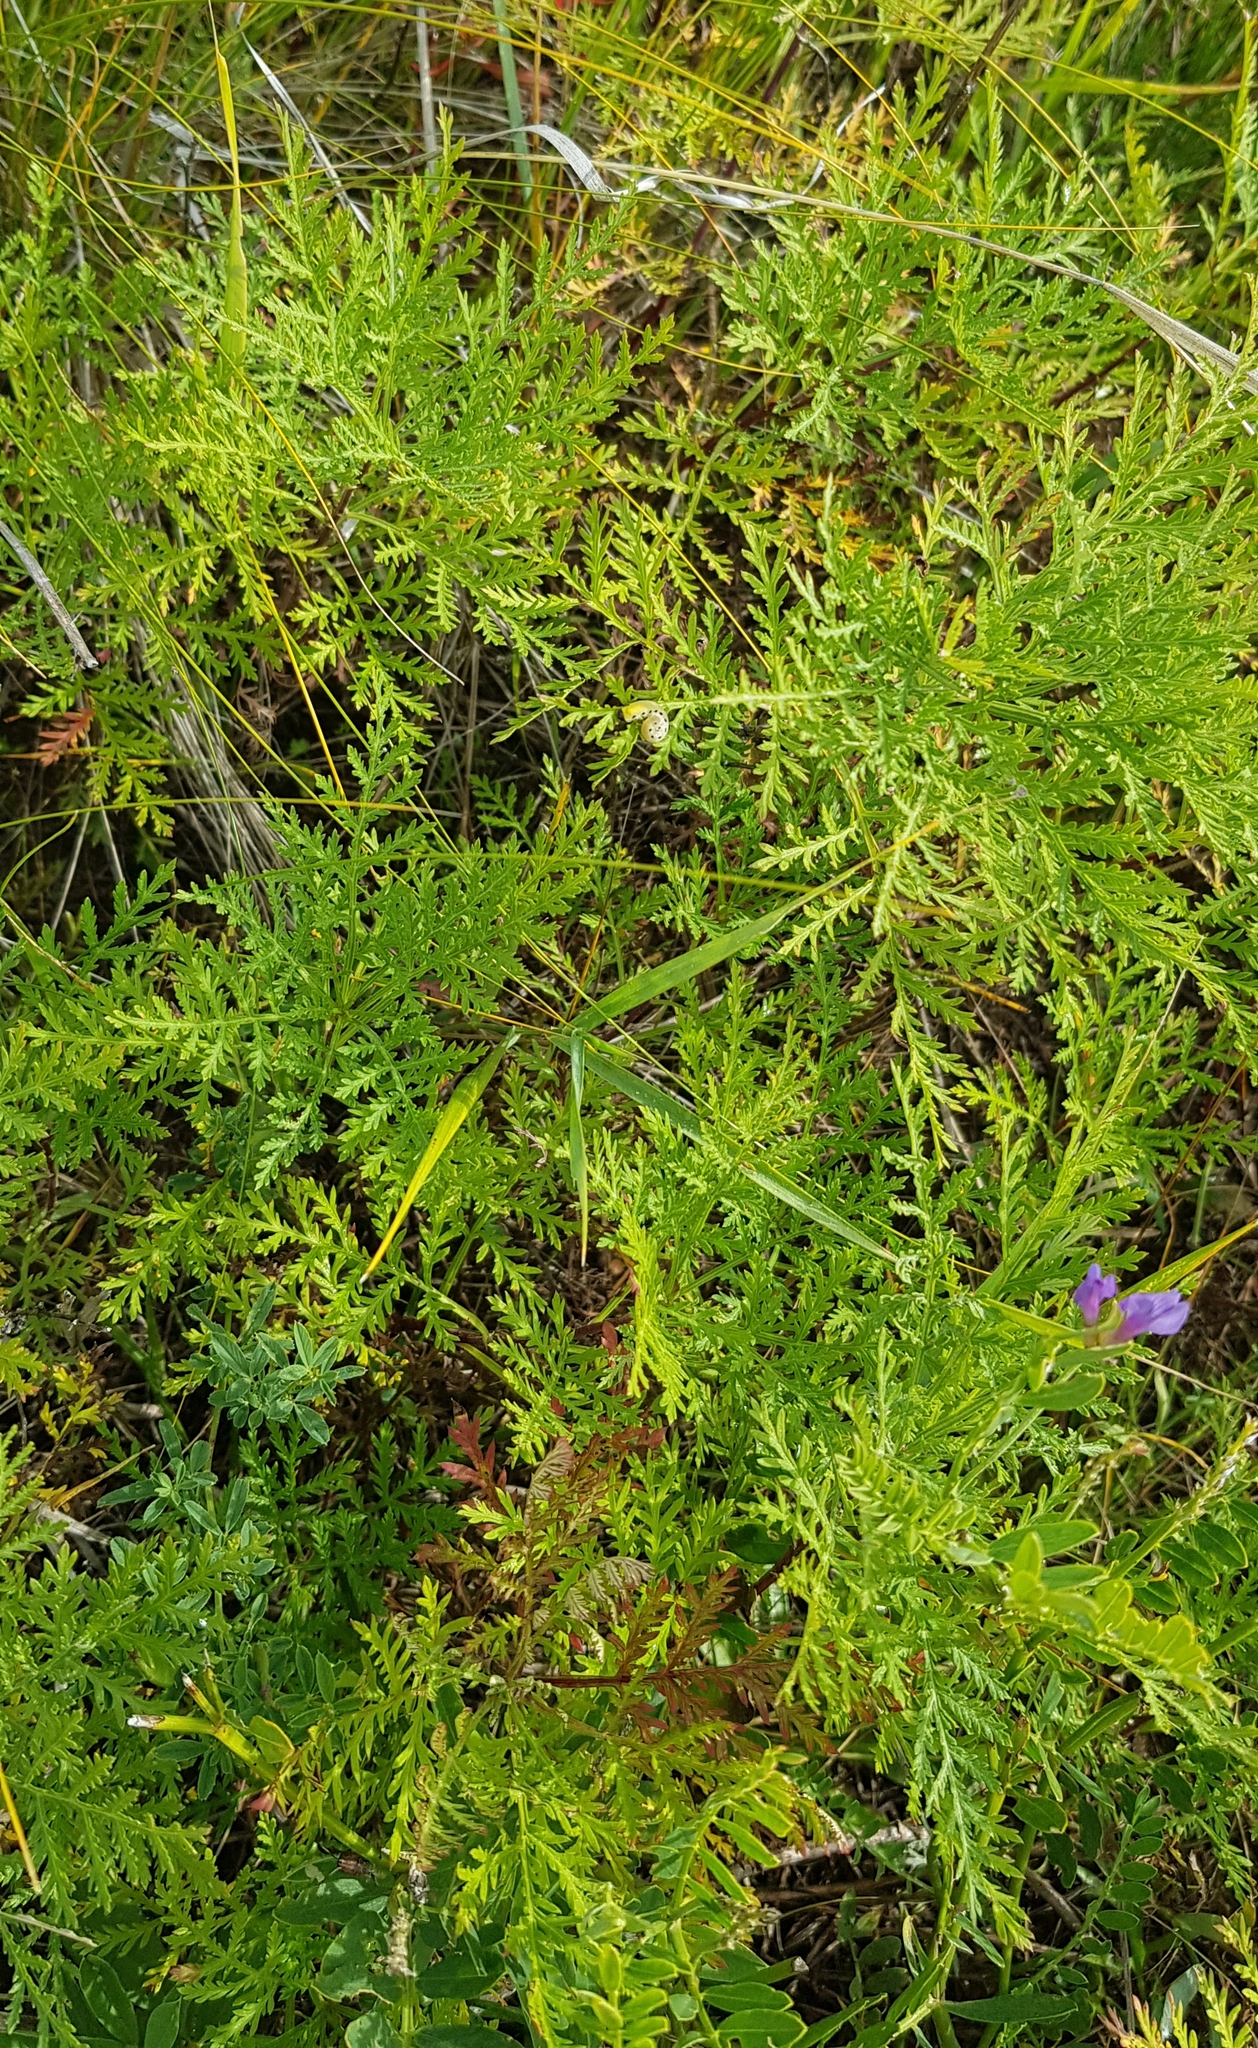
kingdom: Plantae
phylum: Tracheophyta
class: Magnoliopsida
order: Asterales
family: Asteraceae
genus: Artemisia
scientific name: Artemisia gmelinii
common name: Gmelin's wormwood
